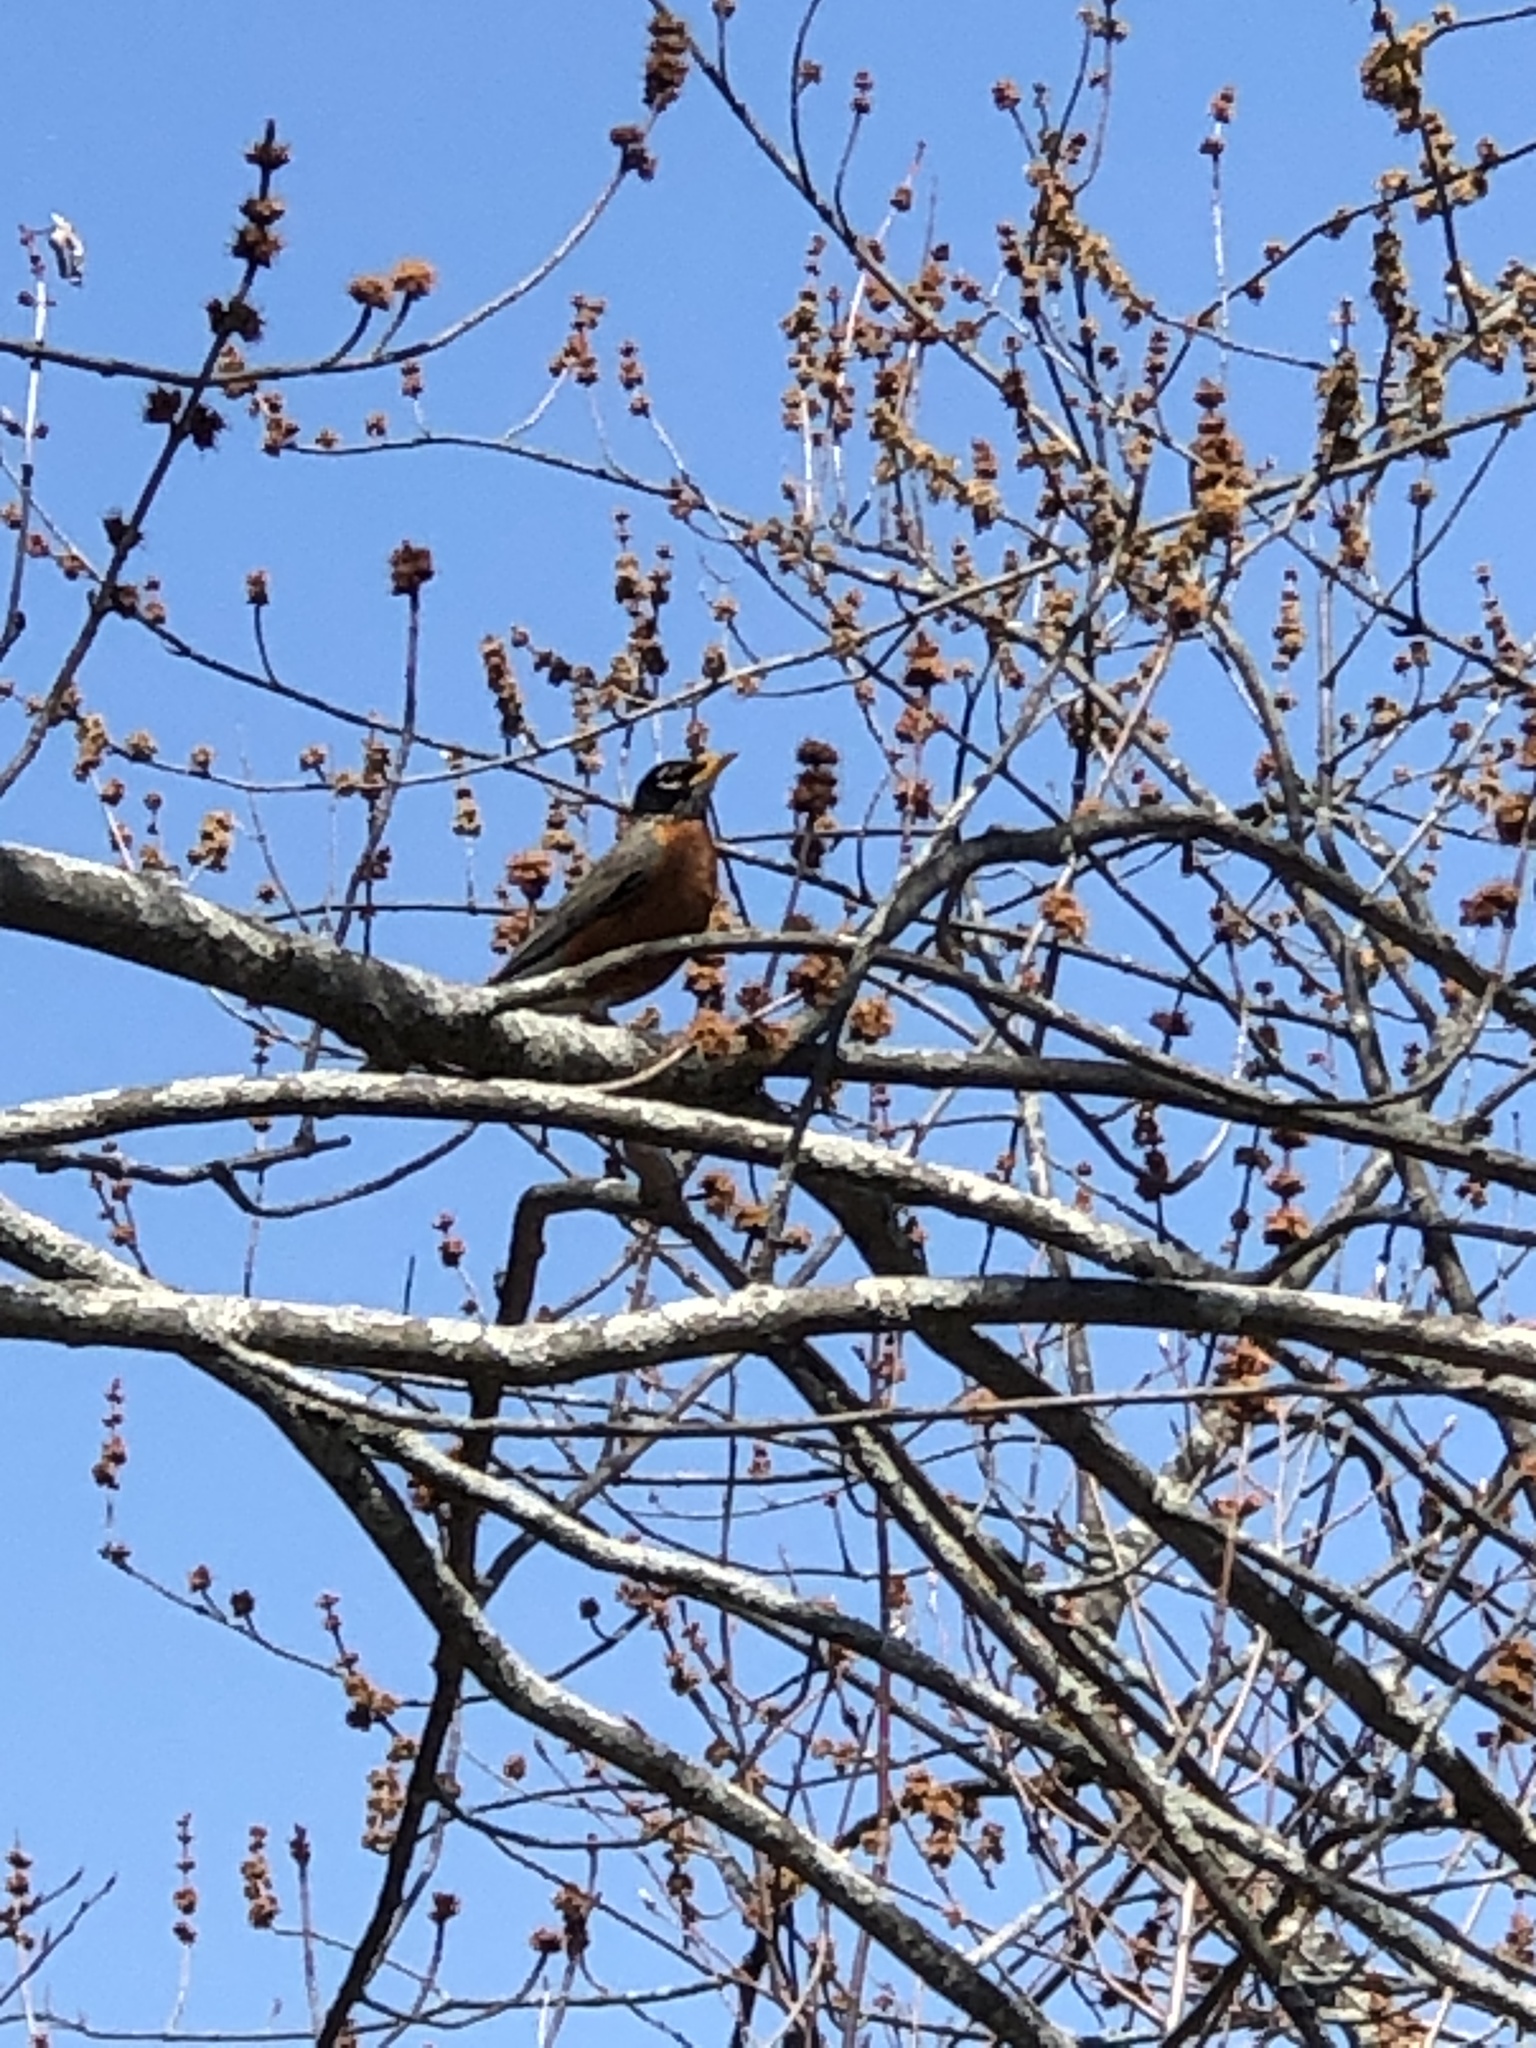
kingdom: Animalia
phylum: Chordata
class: Aves
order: Passeriformes
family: Turdidae
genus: Turdus
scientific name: Turdus migratorius
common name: American robin
